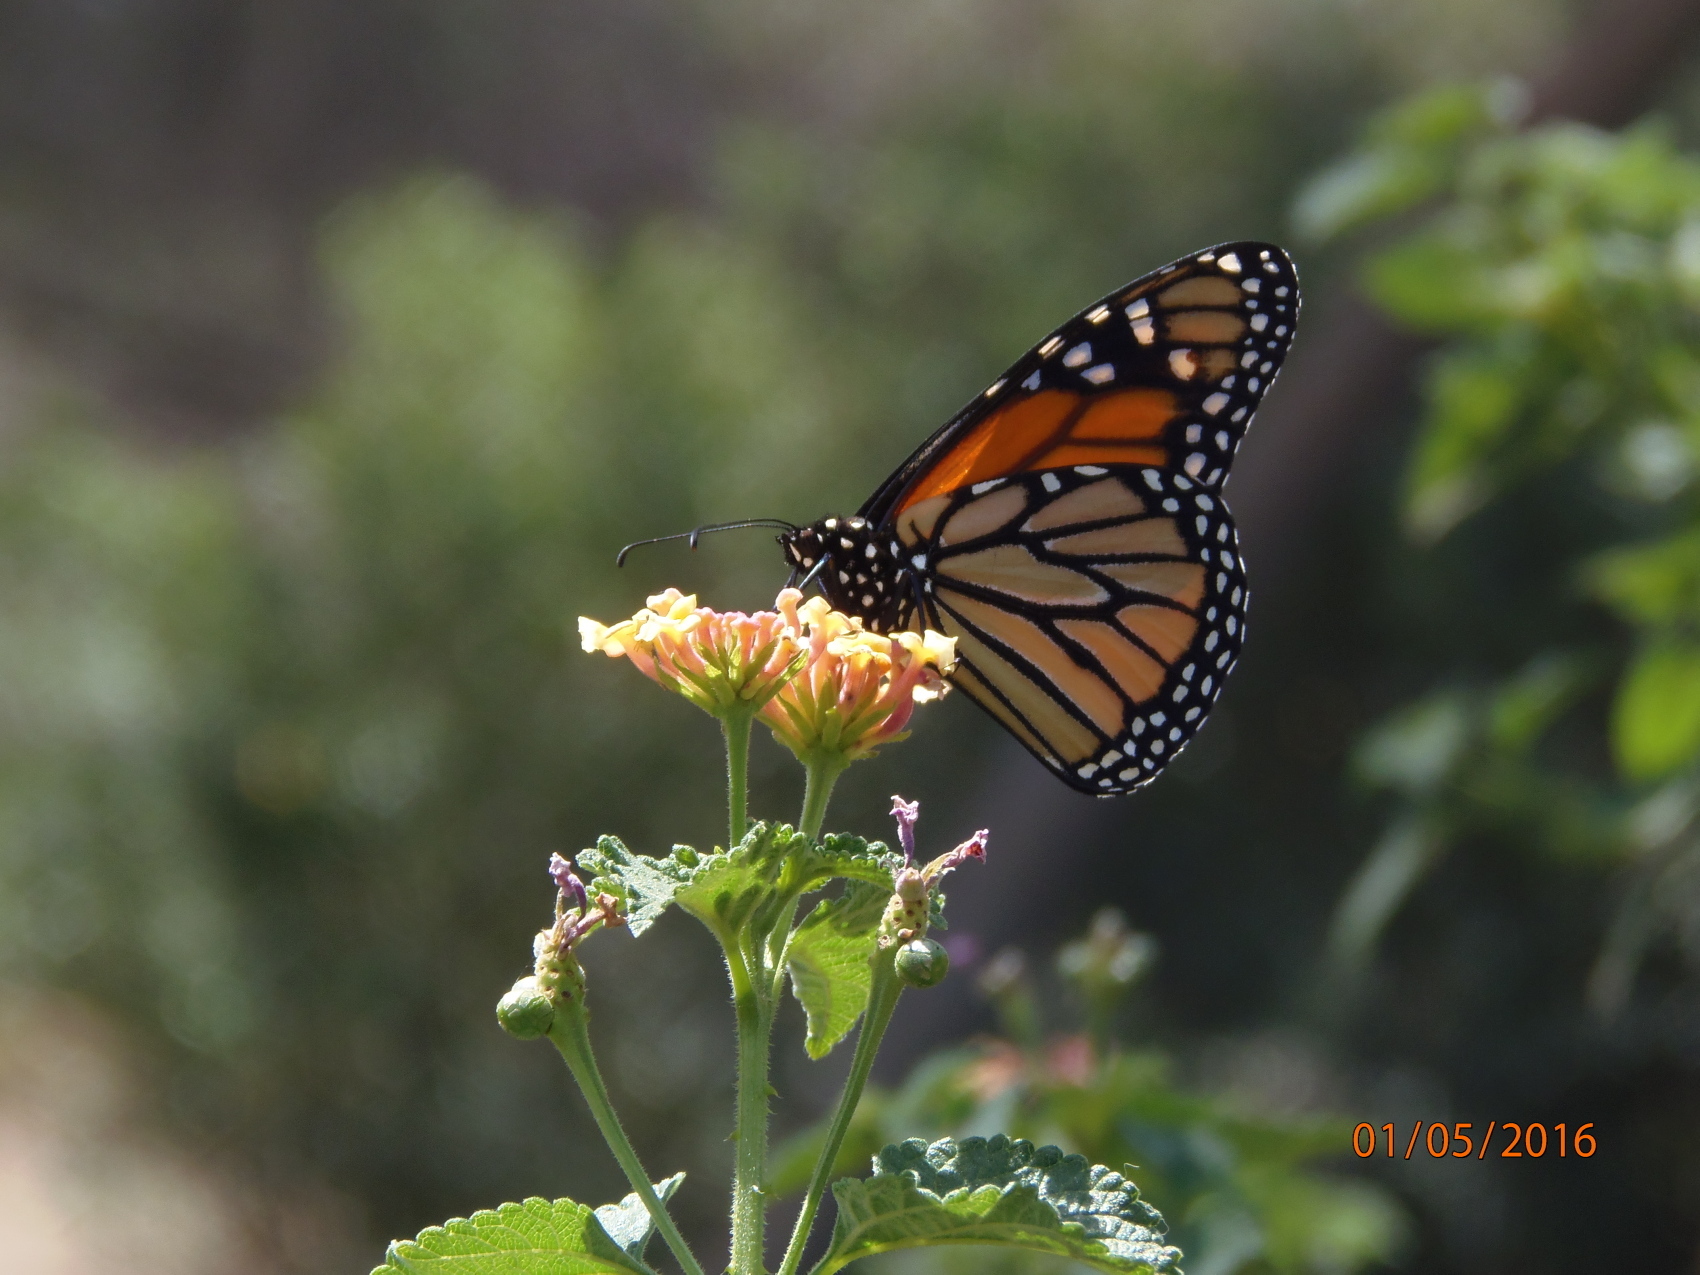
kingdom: Animalia
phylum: Arthropoda
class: Insecta
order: Lepidoptera
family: Nymphalidae
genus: Danaus
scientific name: Danaus plexippus
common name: Monarch
